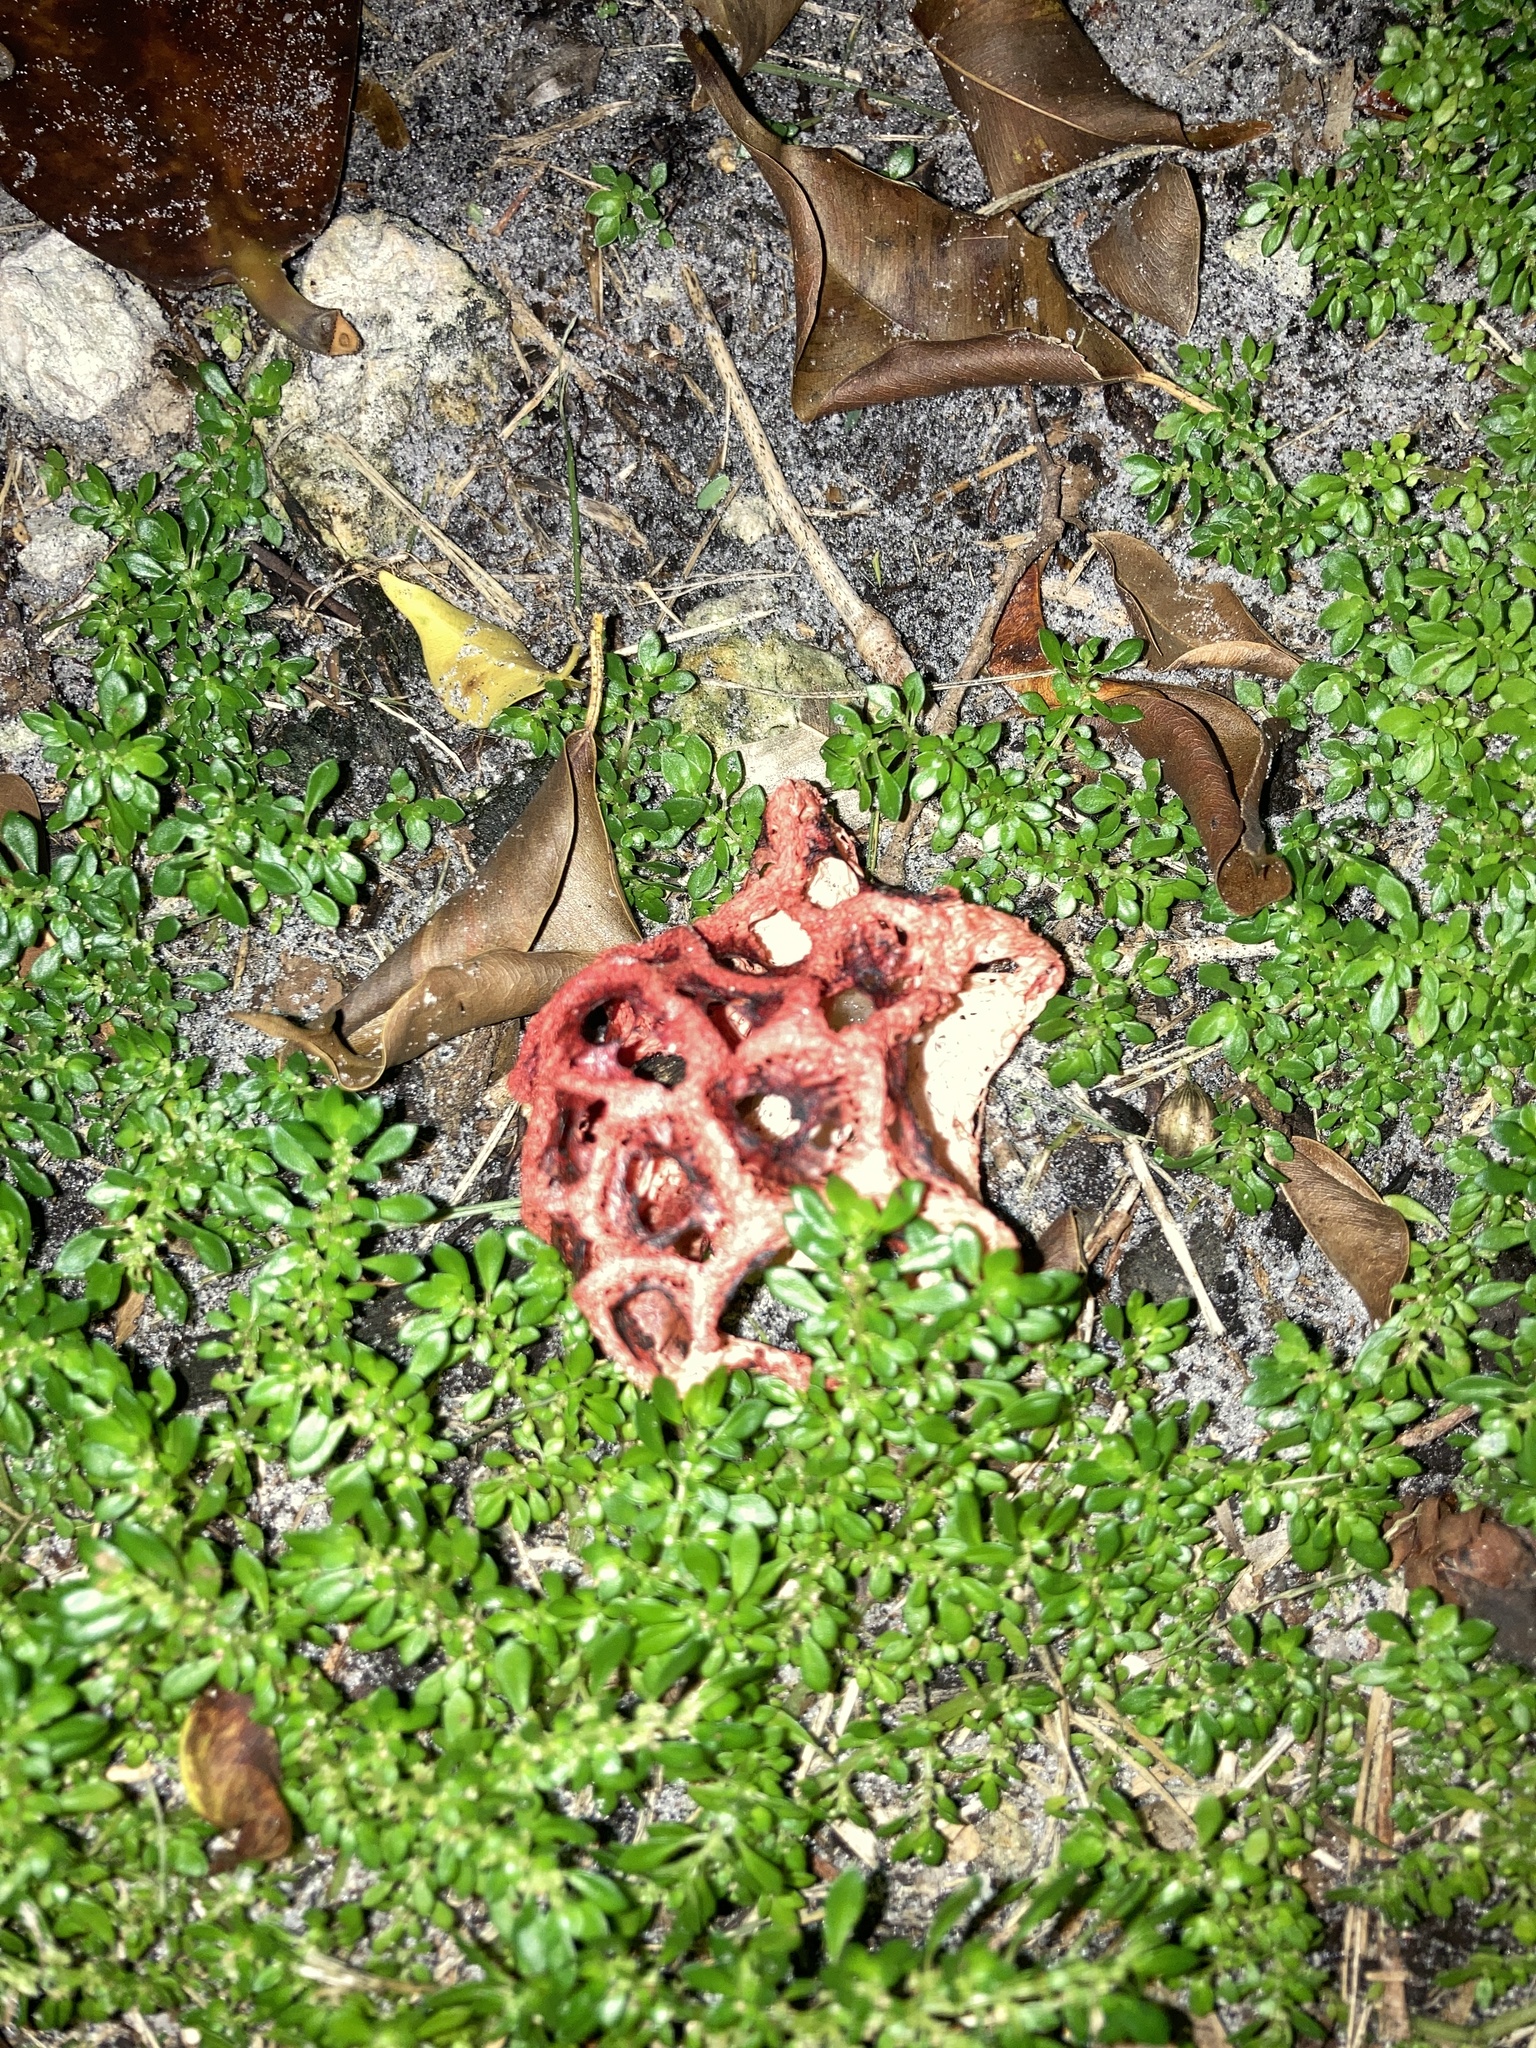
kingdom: Fungi
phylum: Basidiomycota
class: Agaricomycetes
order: Phallales
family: Phallaceae
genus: Clathrus
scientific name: Clathrus crispatus
